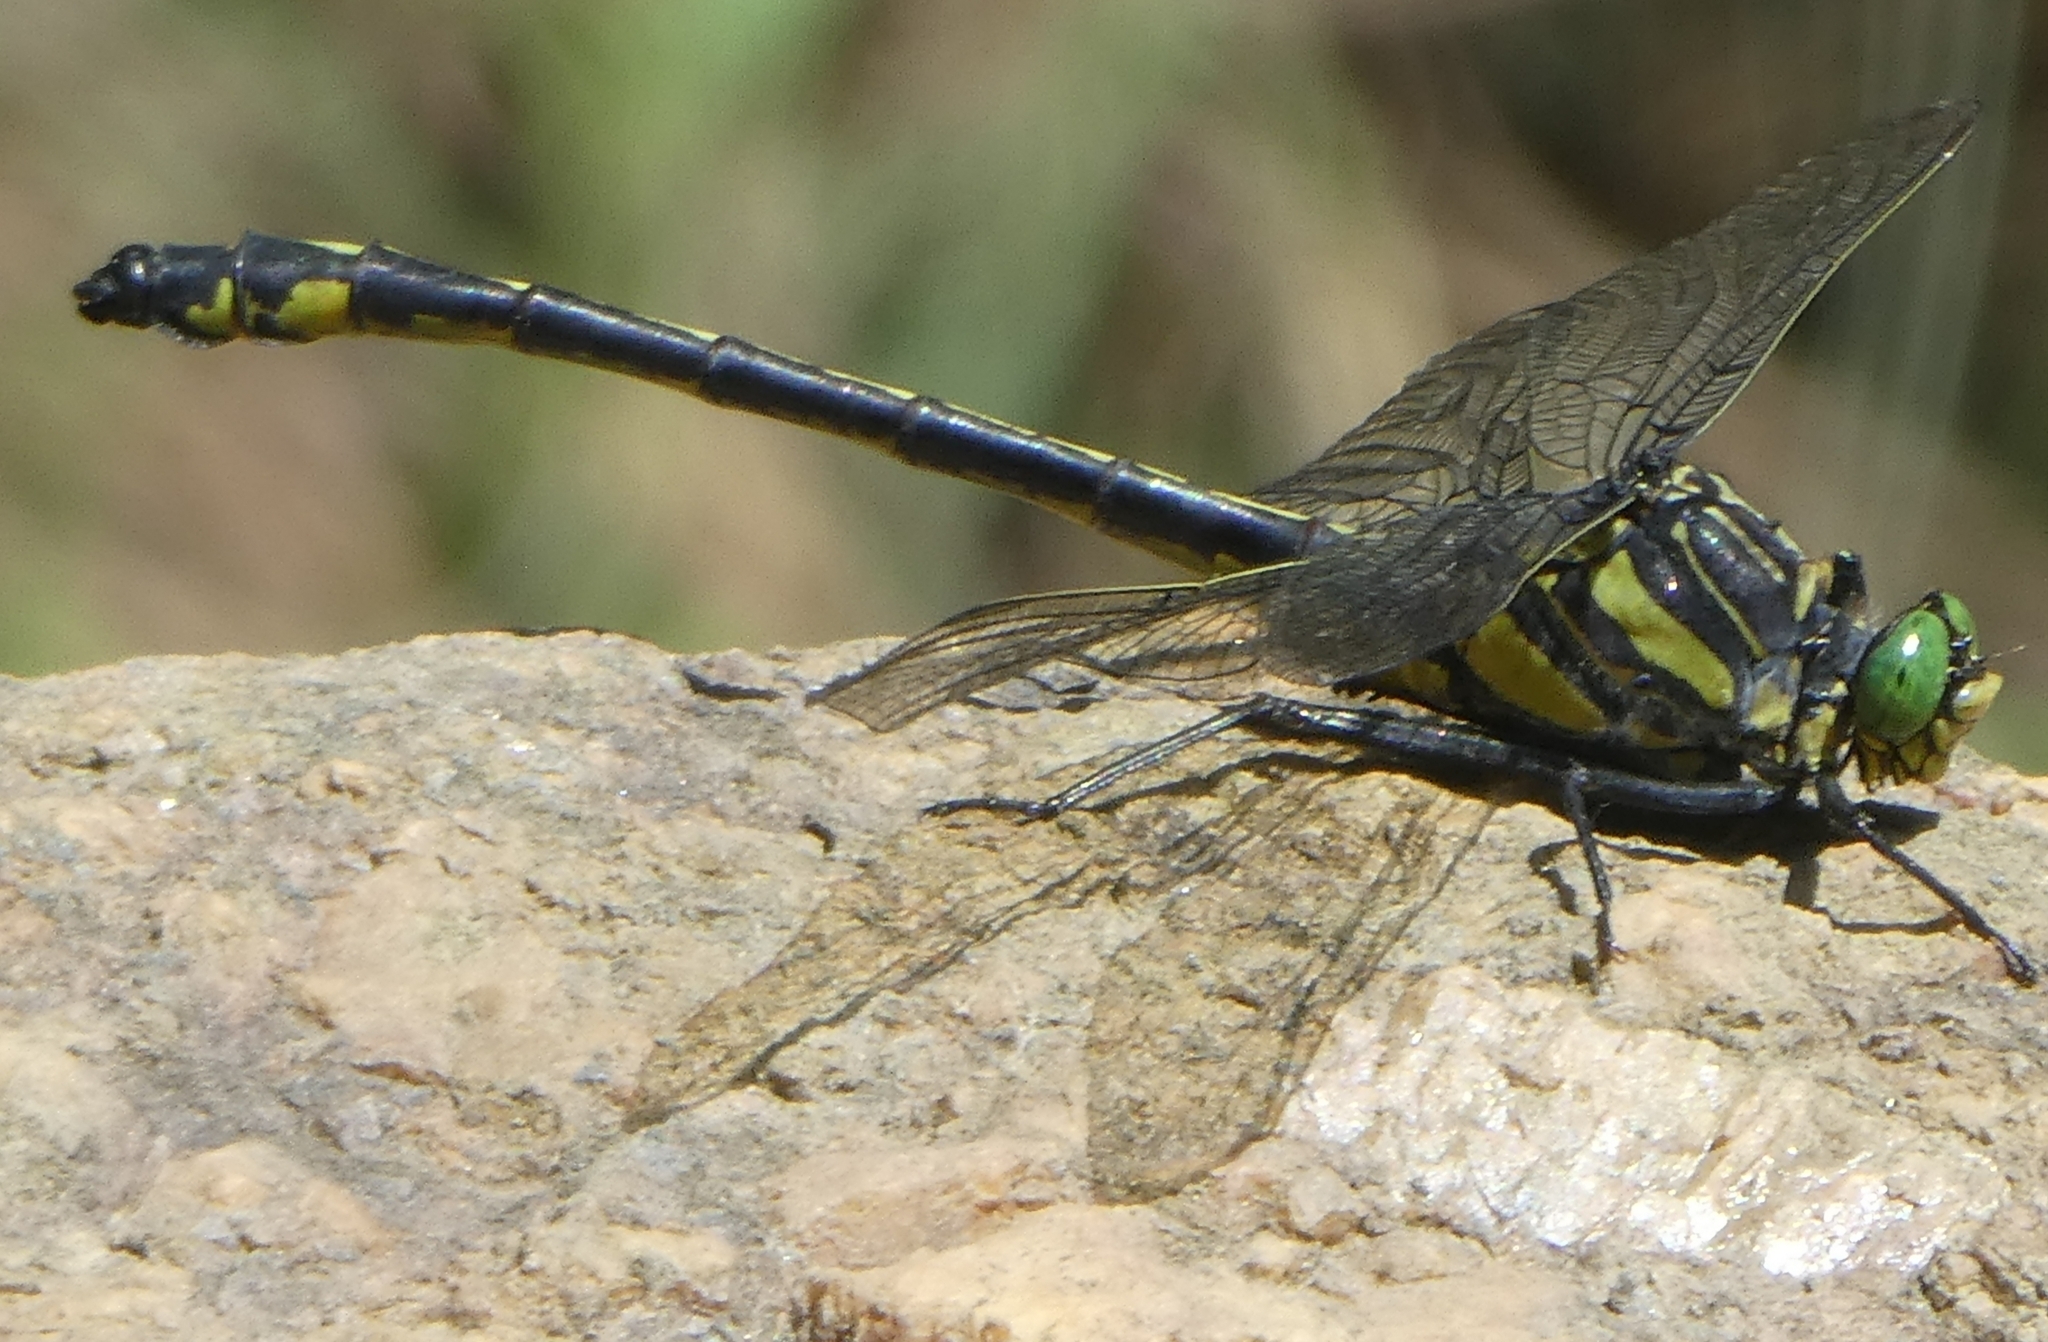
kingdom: Animalia
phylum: Arthropoda
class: Insecta
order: Odonata
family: Gomphidae
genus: Hagenius
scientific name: Hagenius brevistylus
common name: Dragonhunter
